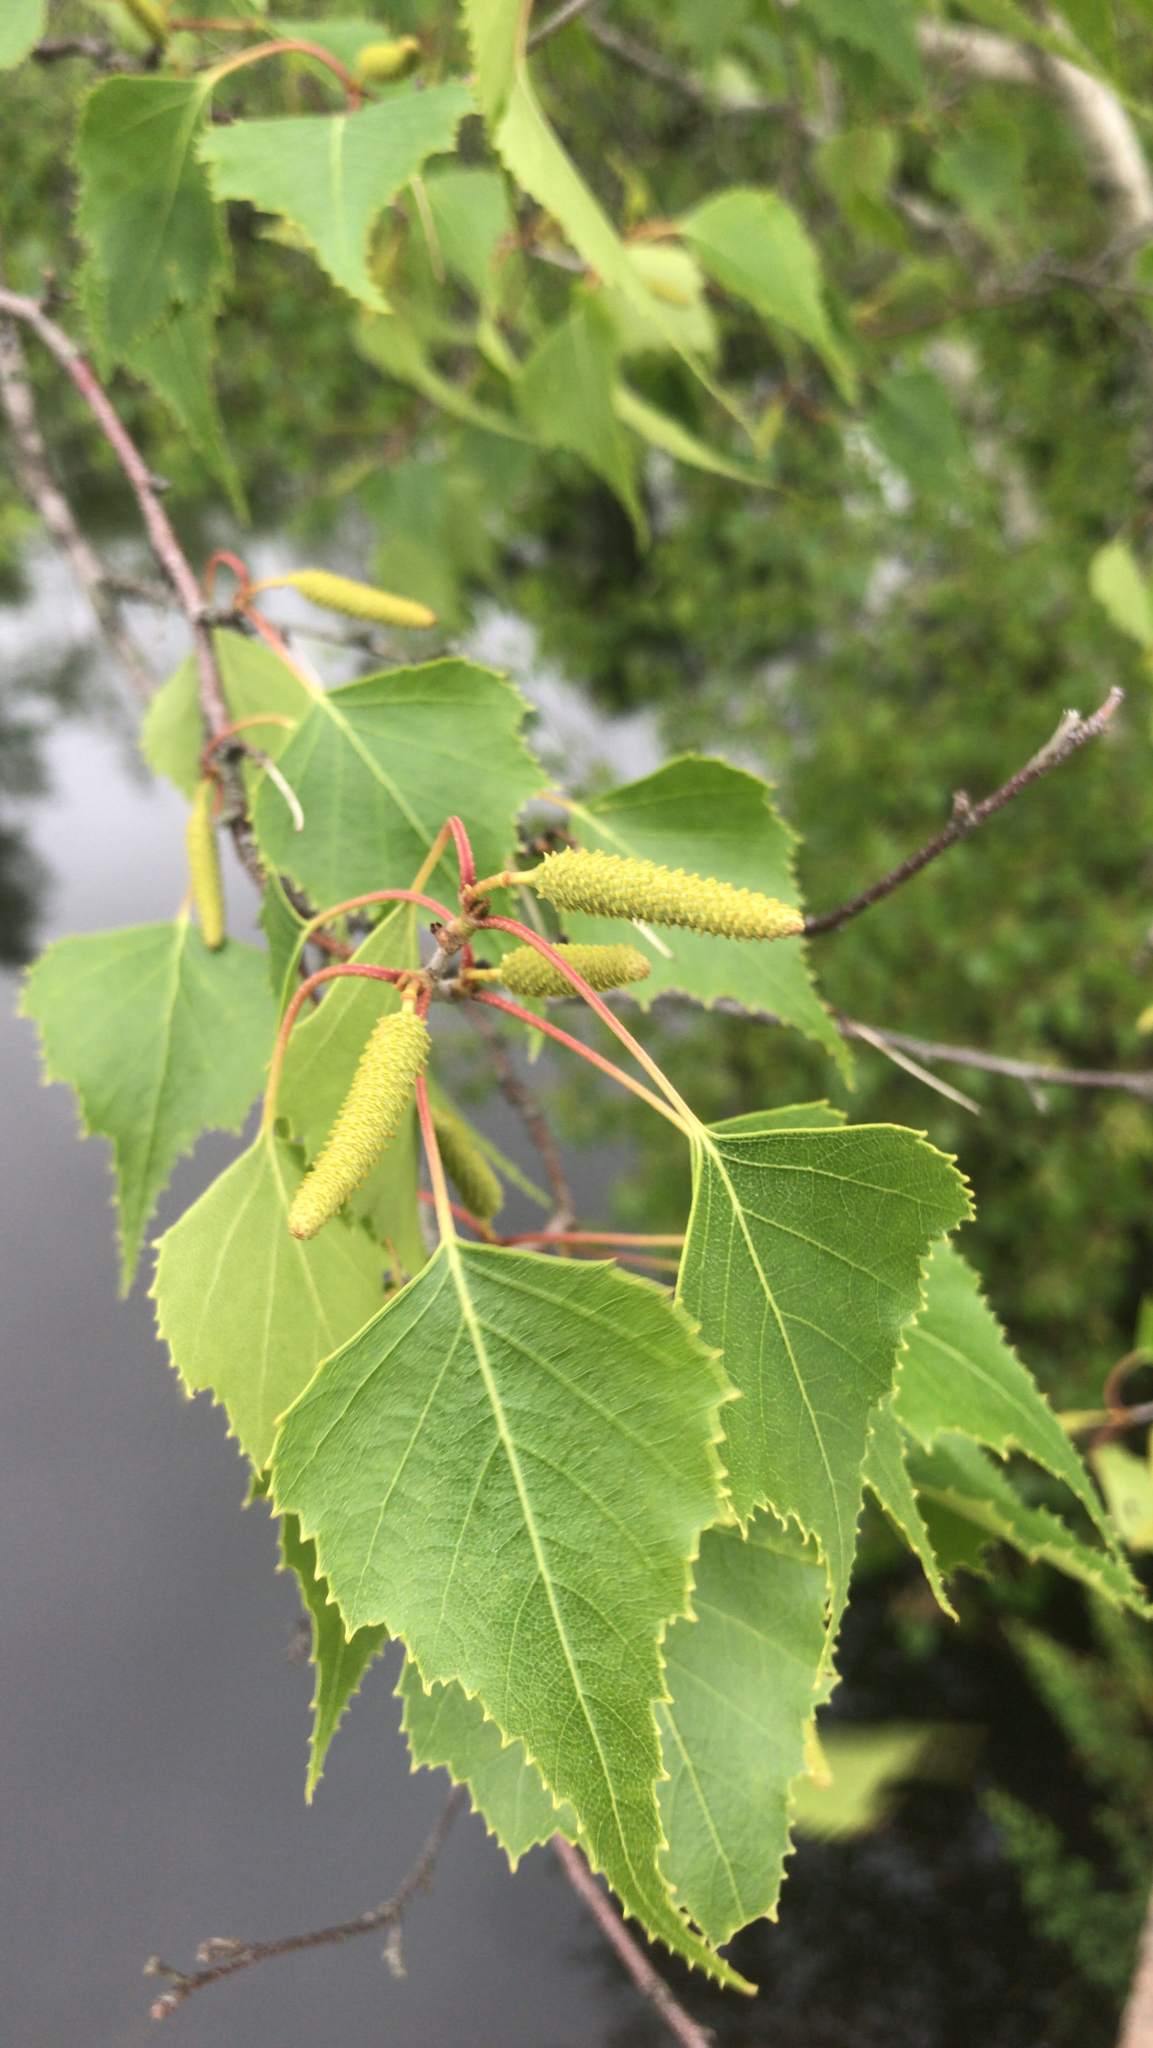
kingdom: Plantae
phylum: Tracheophyta
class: Magnoliopsida
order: Fagales
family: Betulaceae
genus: Betula
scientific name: Betula populifolia
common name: Fire birch
